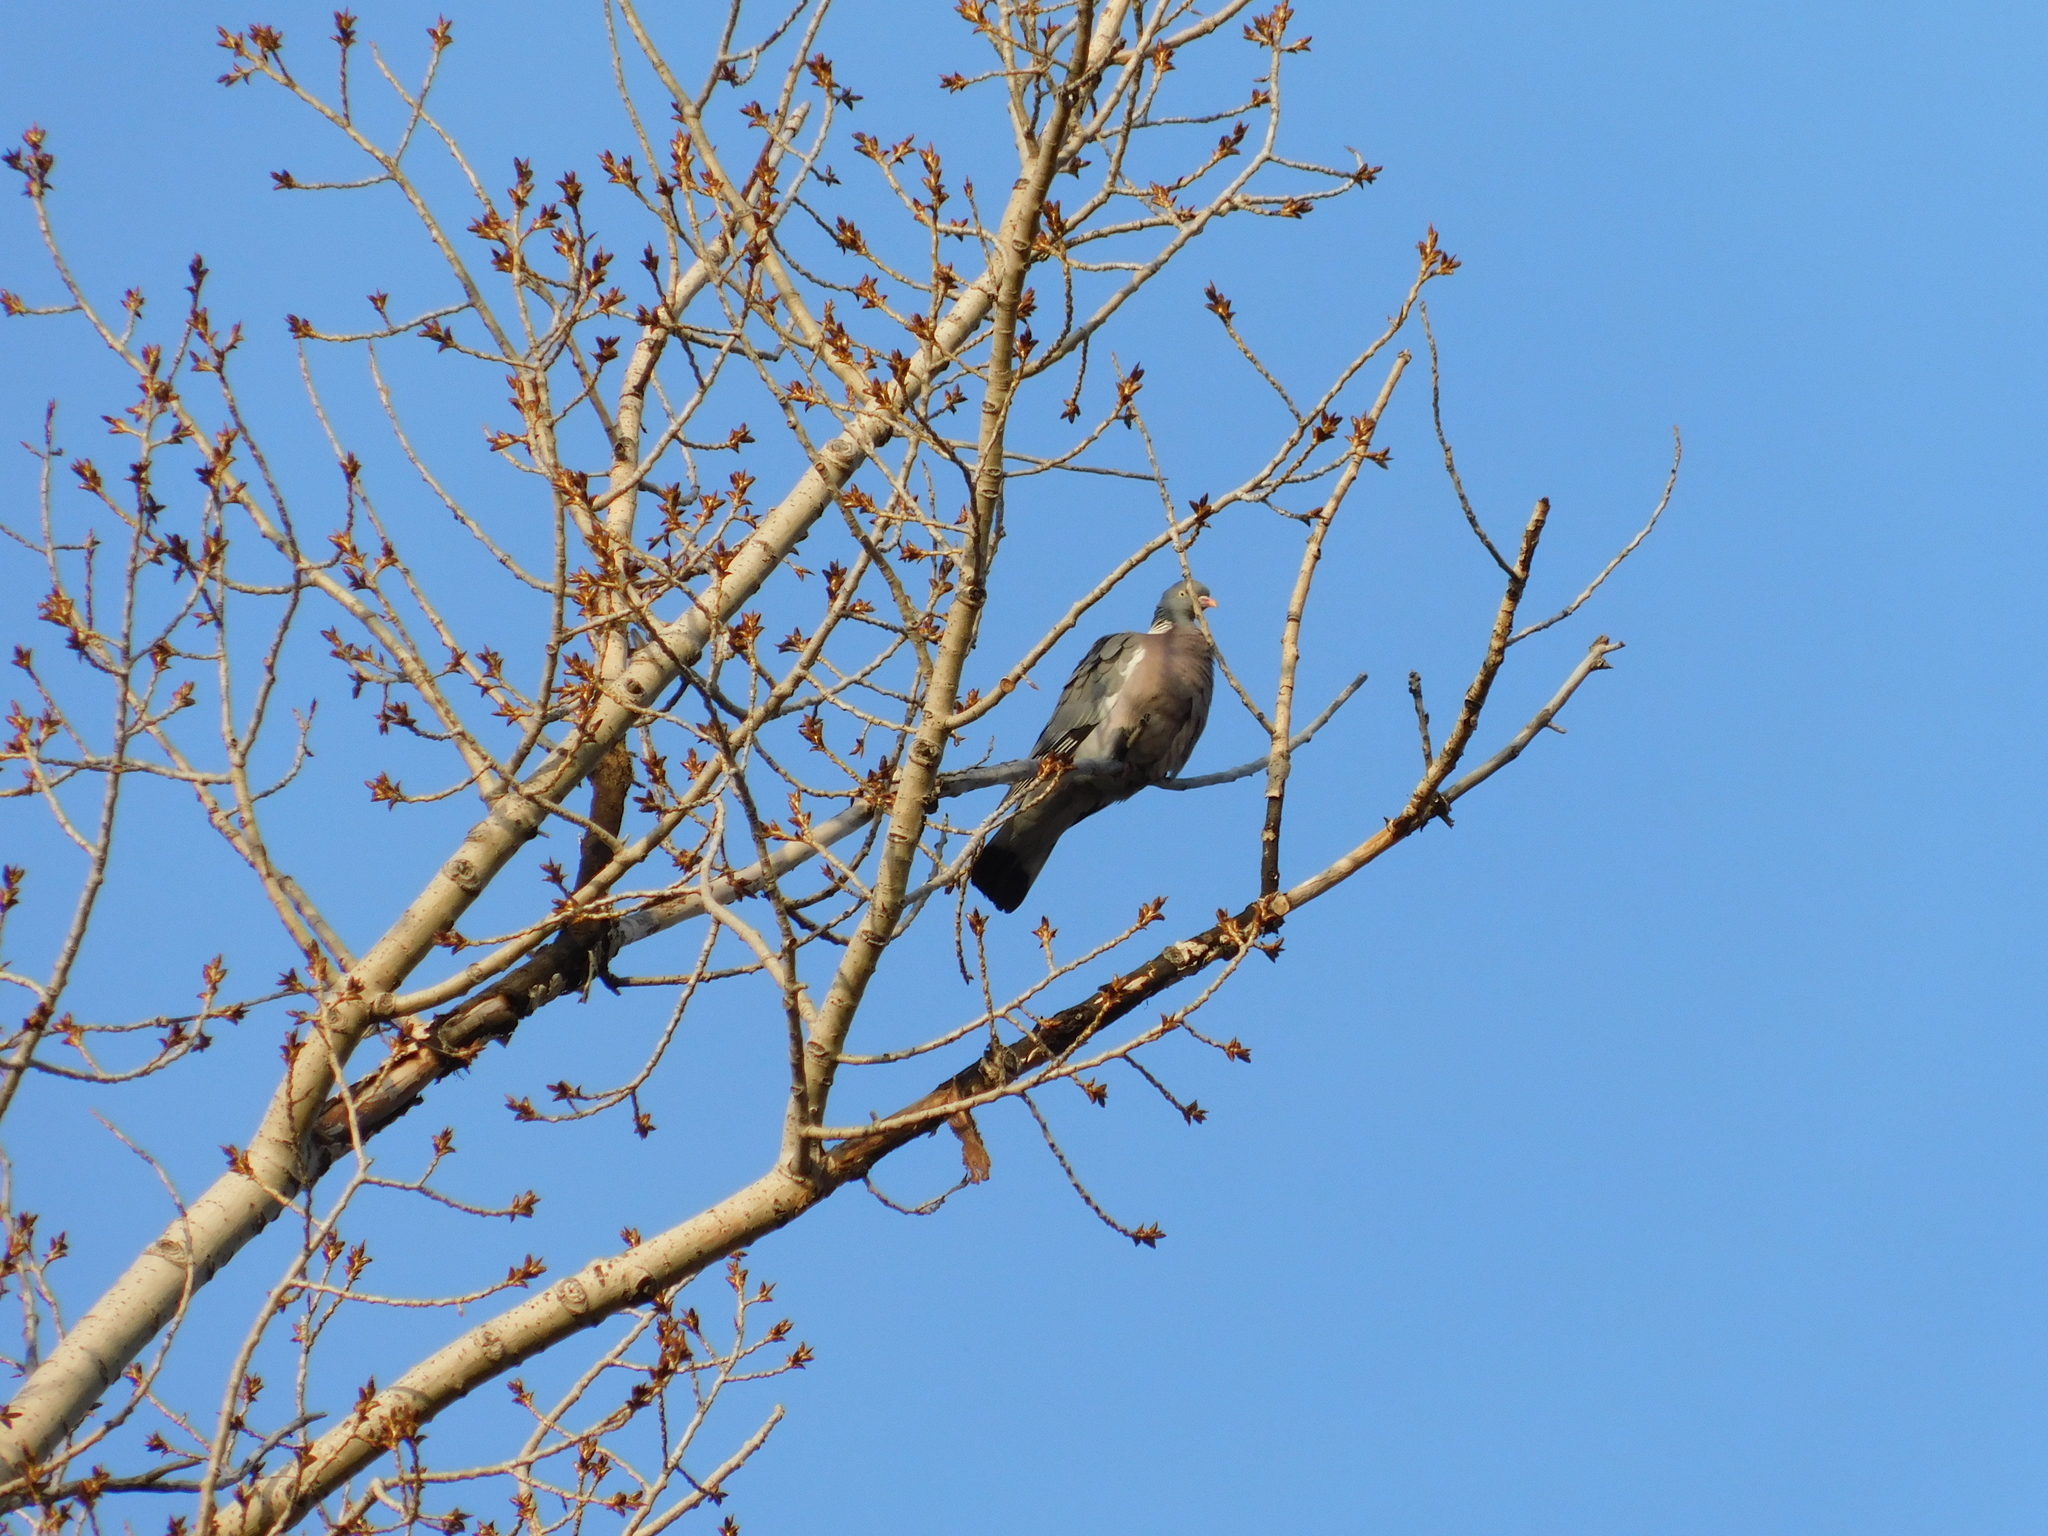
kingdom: Animalia
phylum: Chordata
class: Aves
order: Columbiformes
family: Columbidae
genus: Columba
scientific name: Columba palumbus
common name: Common wood pigeon
